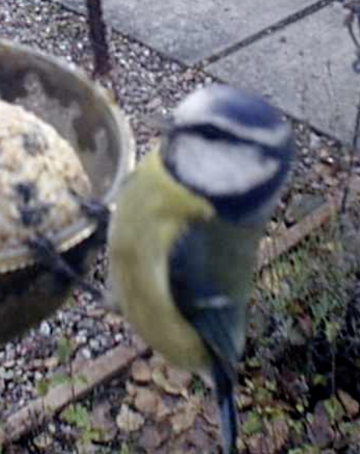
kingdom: Animalia
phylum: Chordata
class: Aves
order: Passeriformes
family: Paridae
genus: Cyanistes
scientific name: Cyanistes caeruleus
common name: Eurasian blue tit
